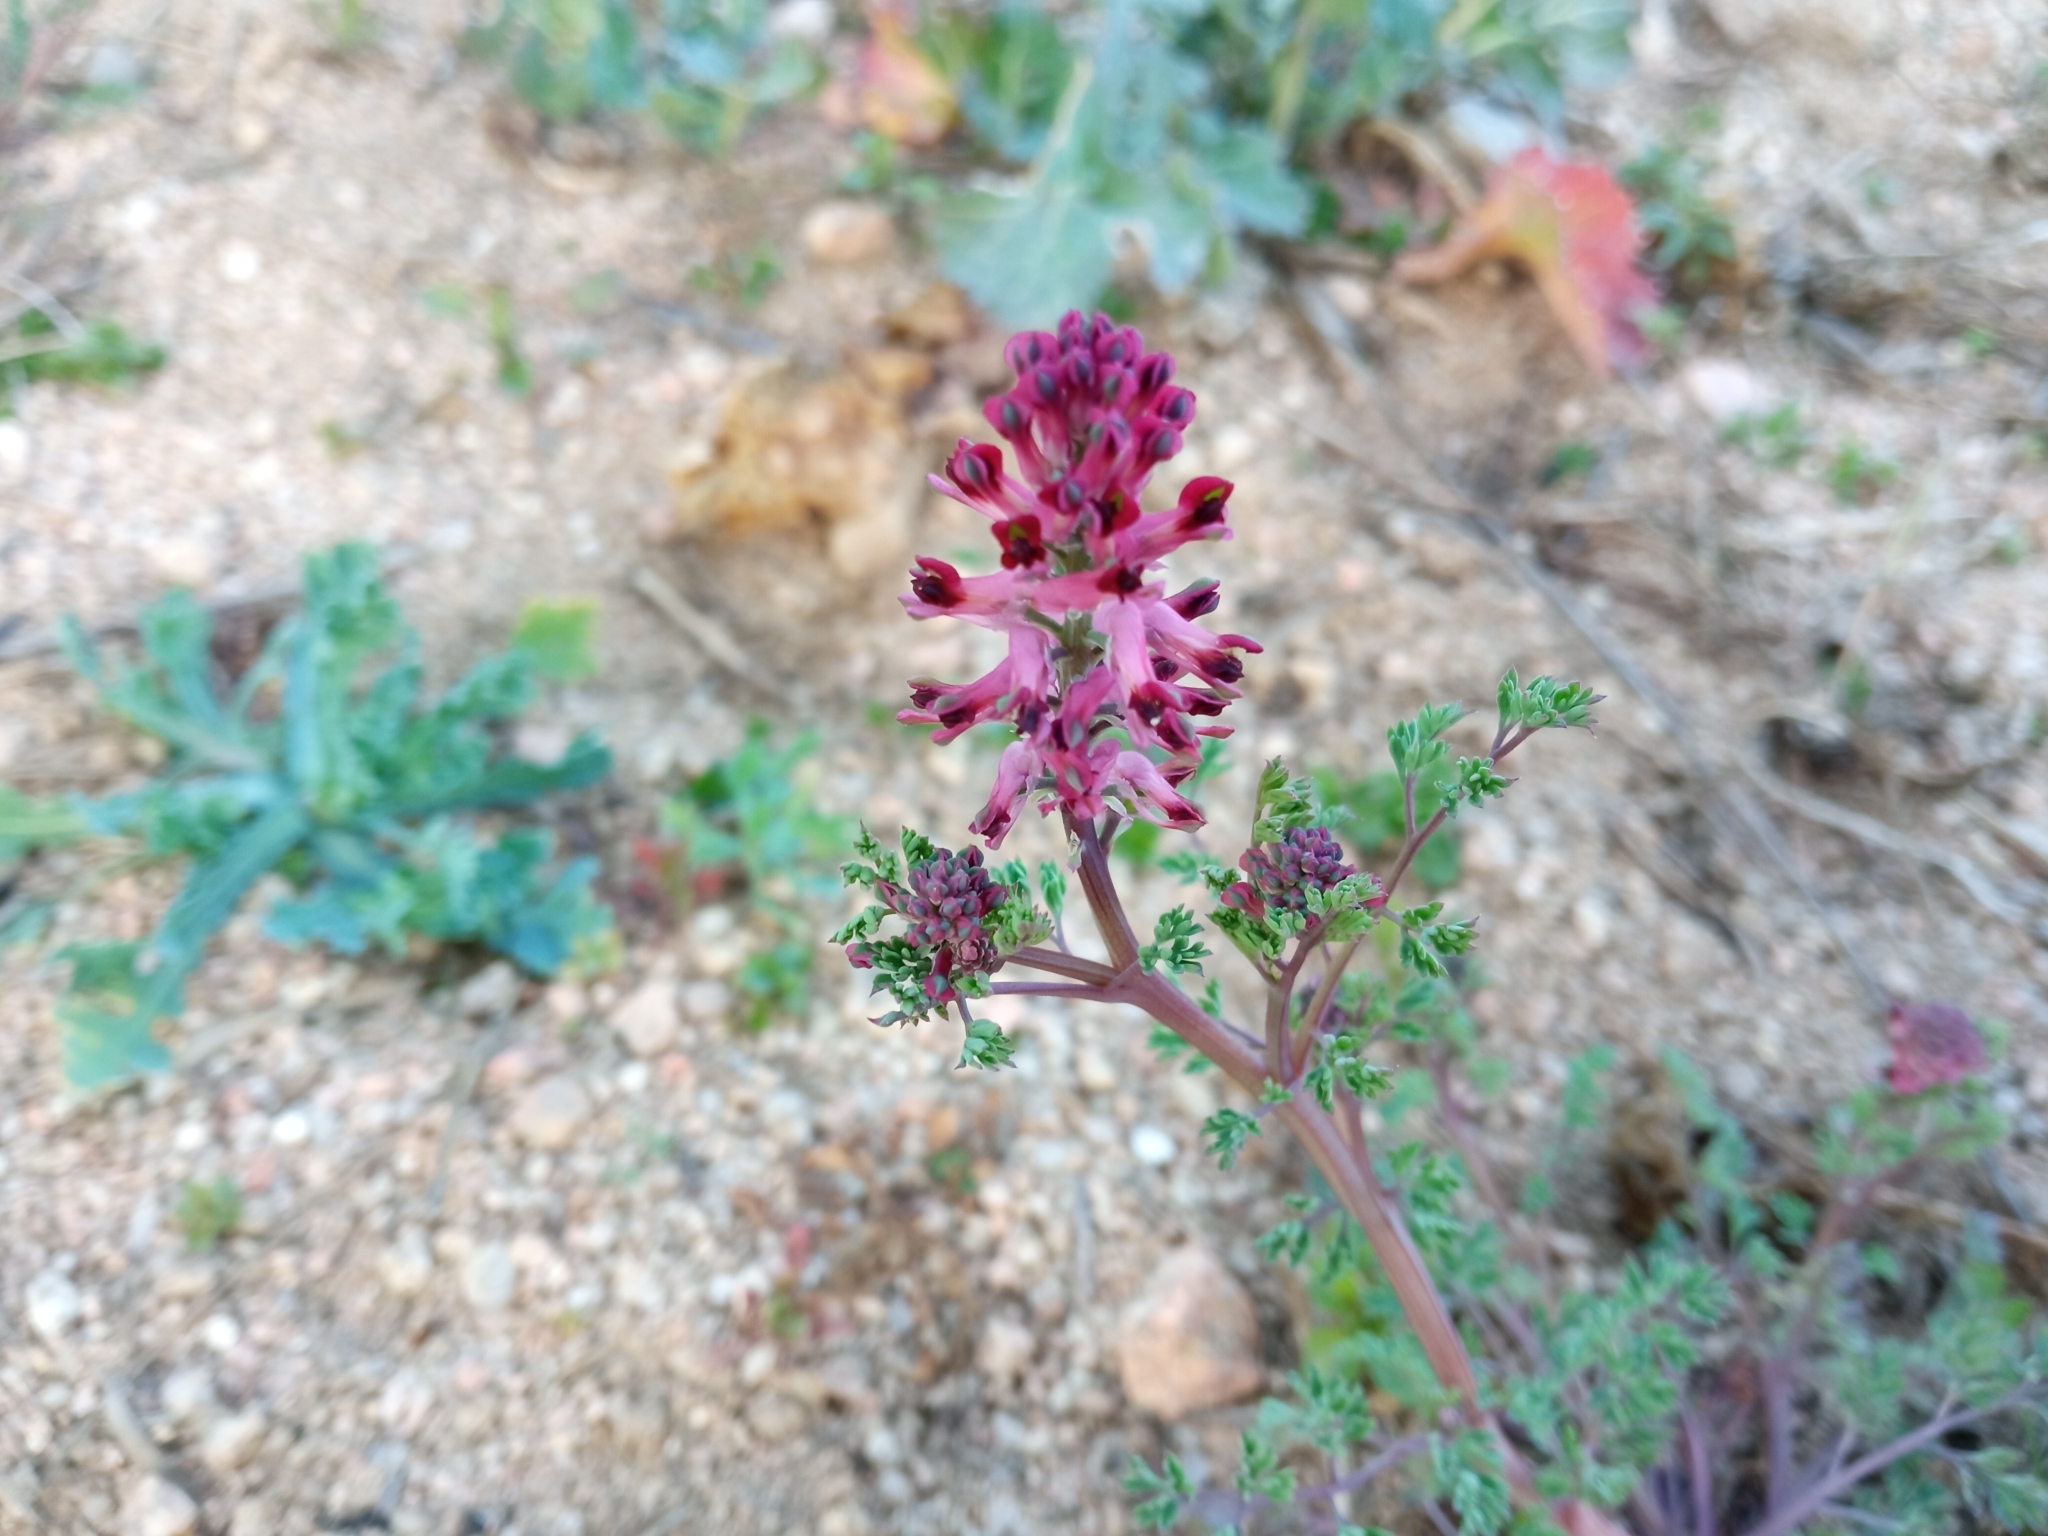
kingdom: Plantae
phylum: Tracheophyta
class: Magnoliopsida
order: Ranunculales
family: Papaveraceae
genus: Fumaria
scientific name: Fumaria officinalis
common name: Common fumitory
